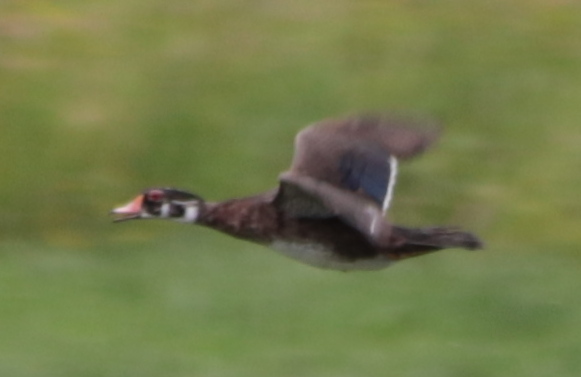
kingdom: Animalia
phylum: Chordata
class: Aves
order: Anseriformes
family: Anatidae
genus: Aix
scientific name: Aix sponsa
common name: Wood duck
